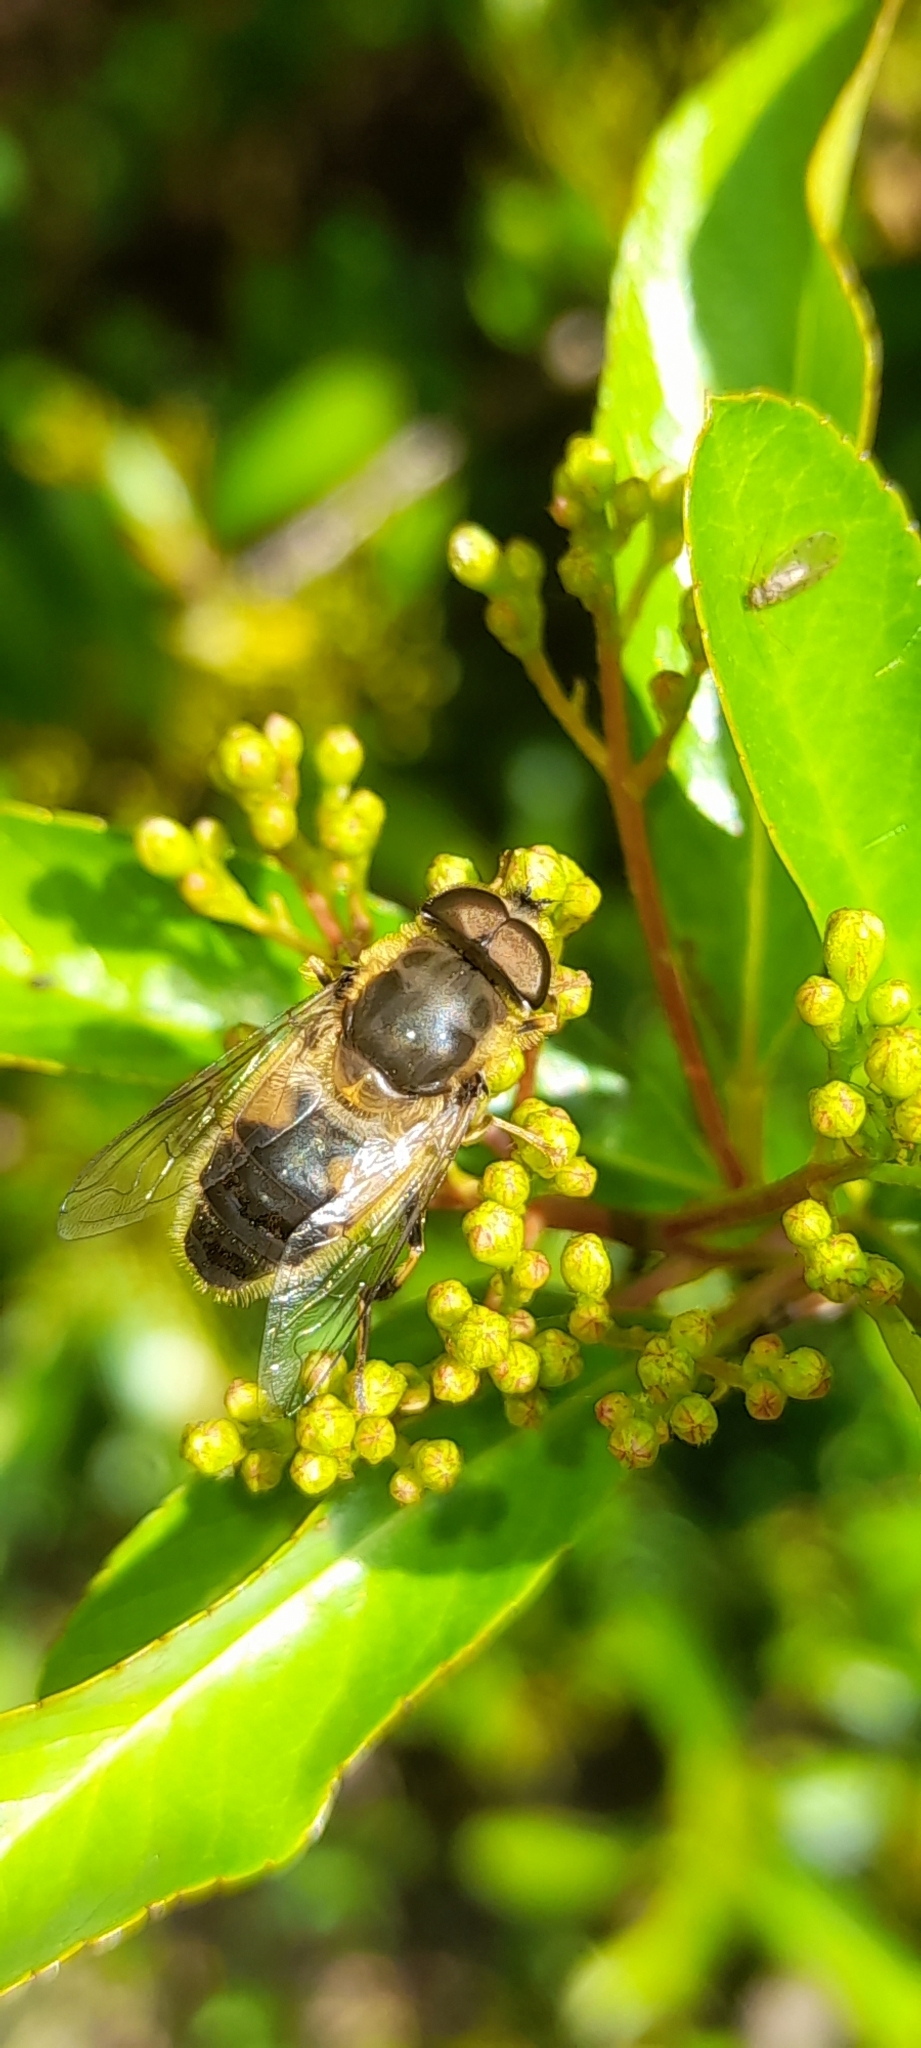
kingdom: Animalia
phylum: Arthropoda
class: Insecta
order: Diptera
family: Syrphidae
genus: Eristalis
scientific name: Eristalis pertinax
